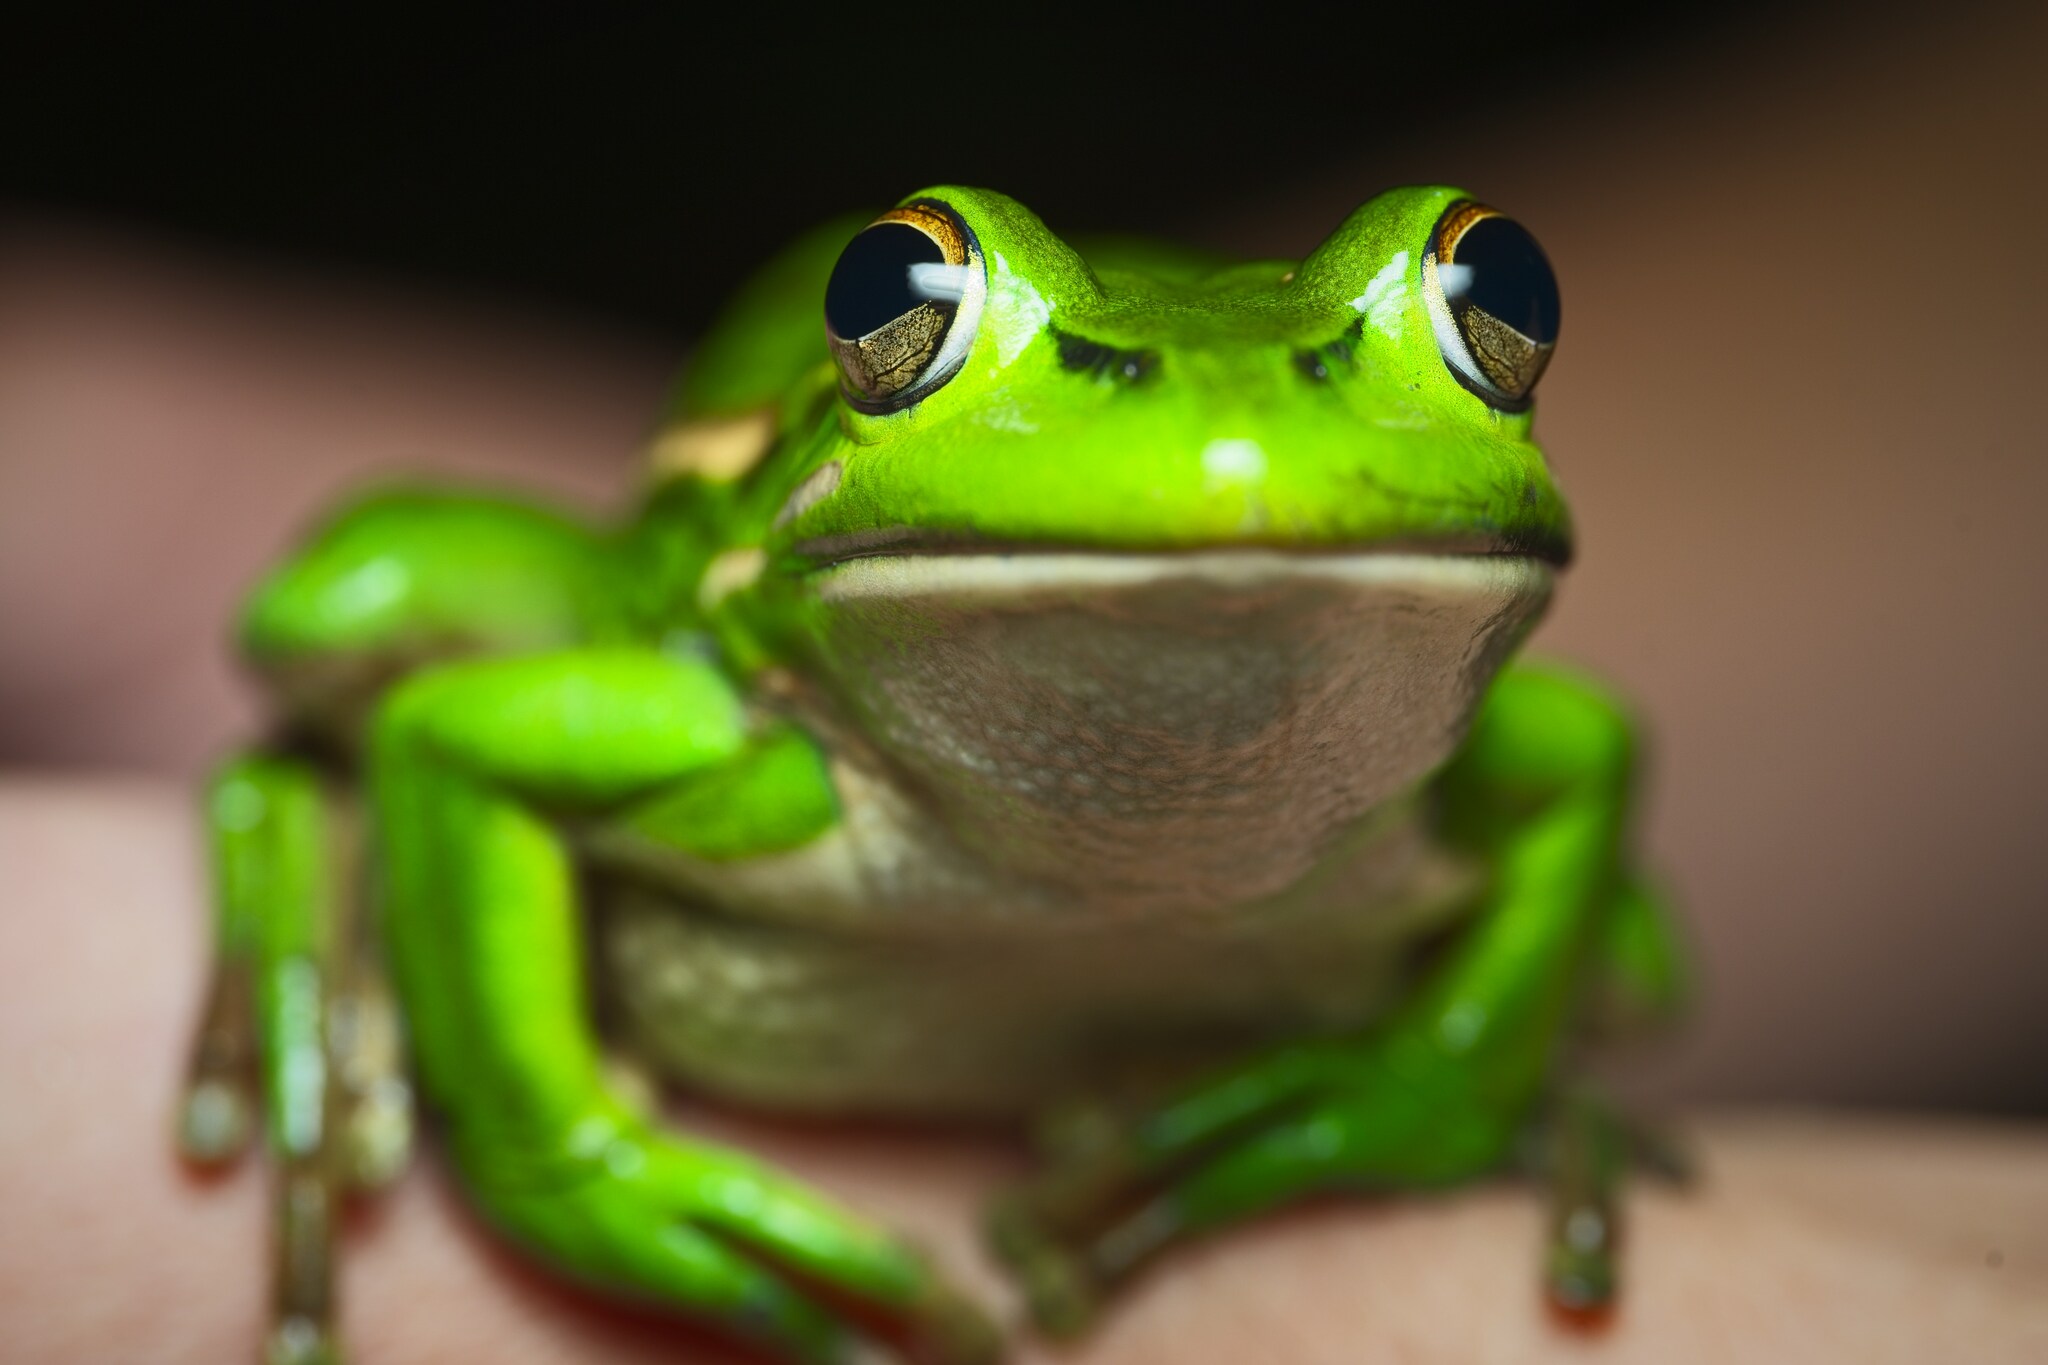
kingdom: Animalia
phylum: Chordata
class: Amphibia
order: Anura
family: Pelodryadidae
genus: Ranoidea
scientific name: Ranoidea aurea
